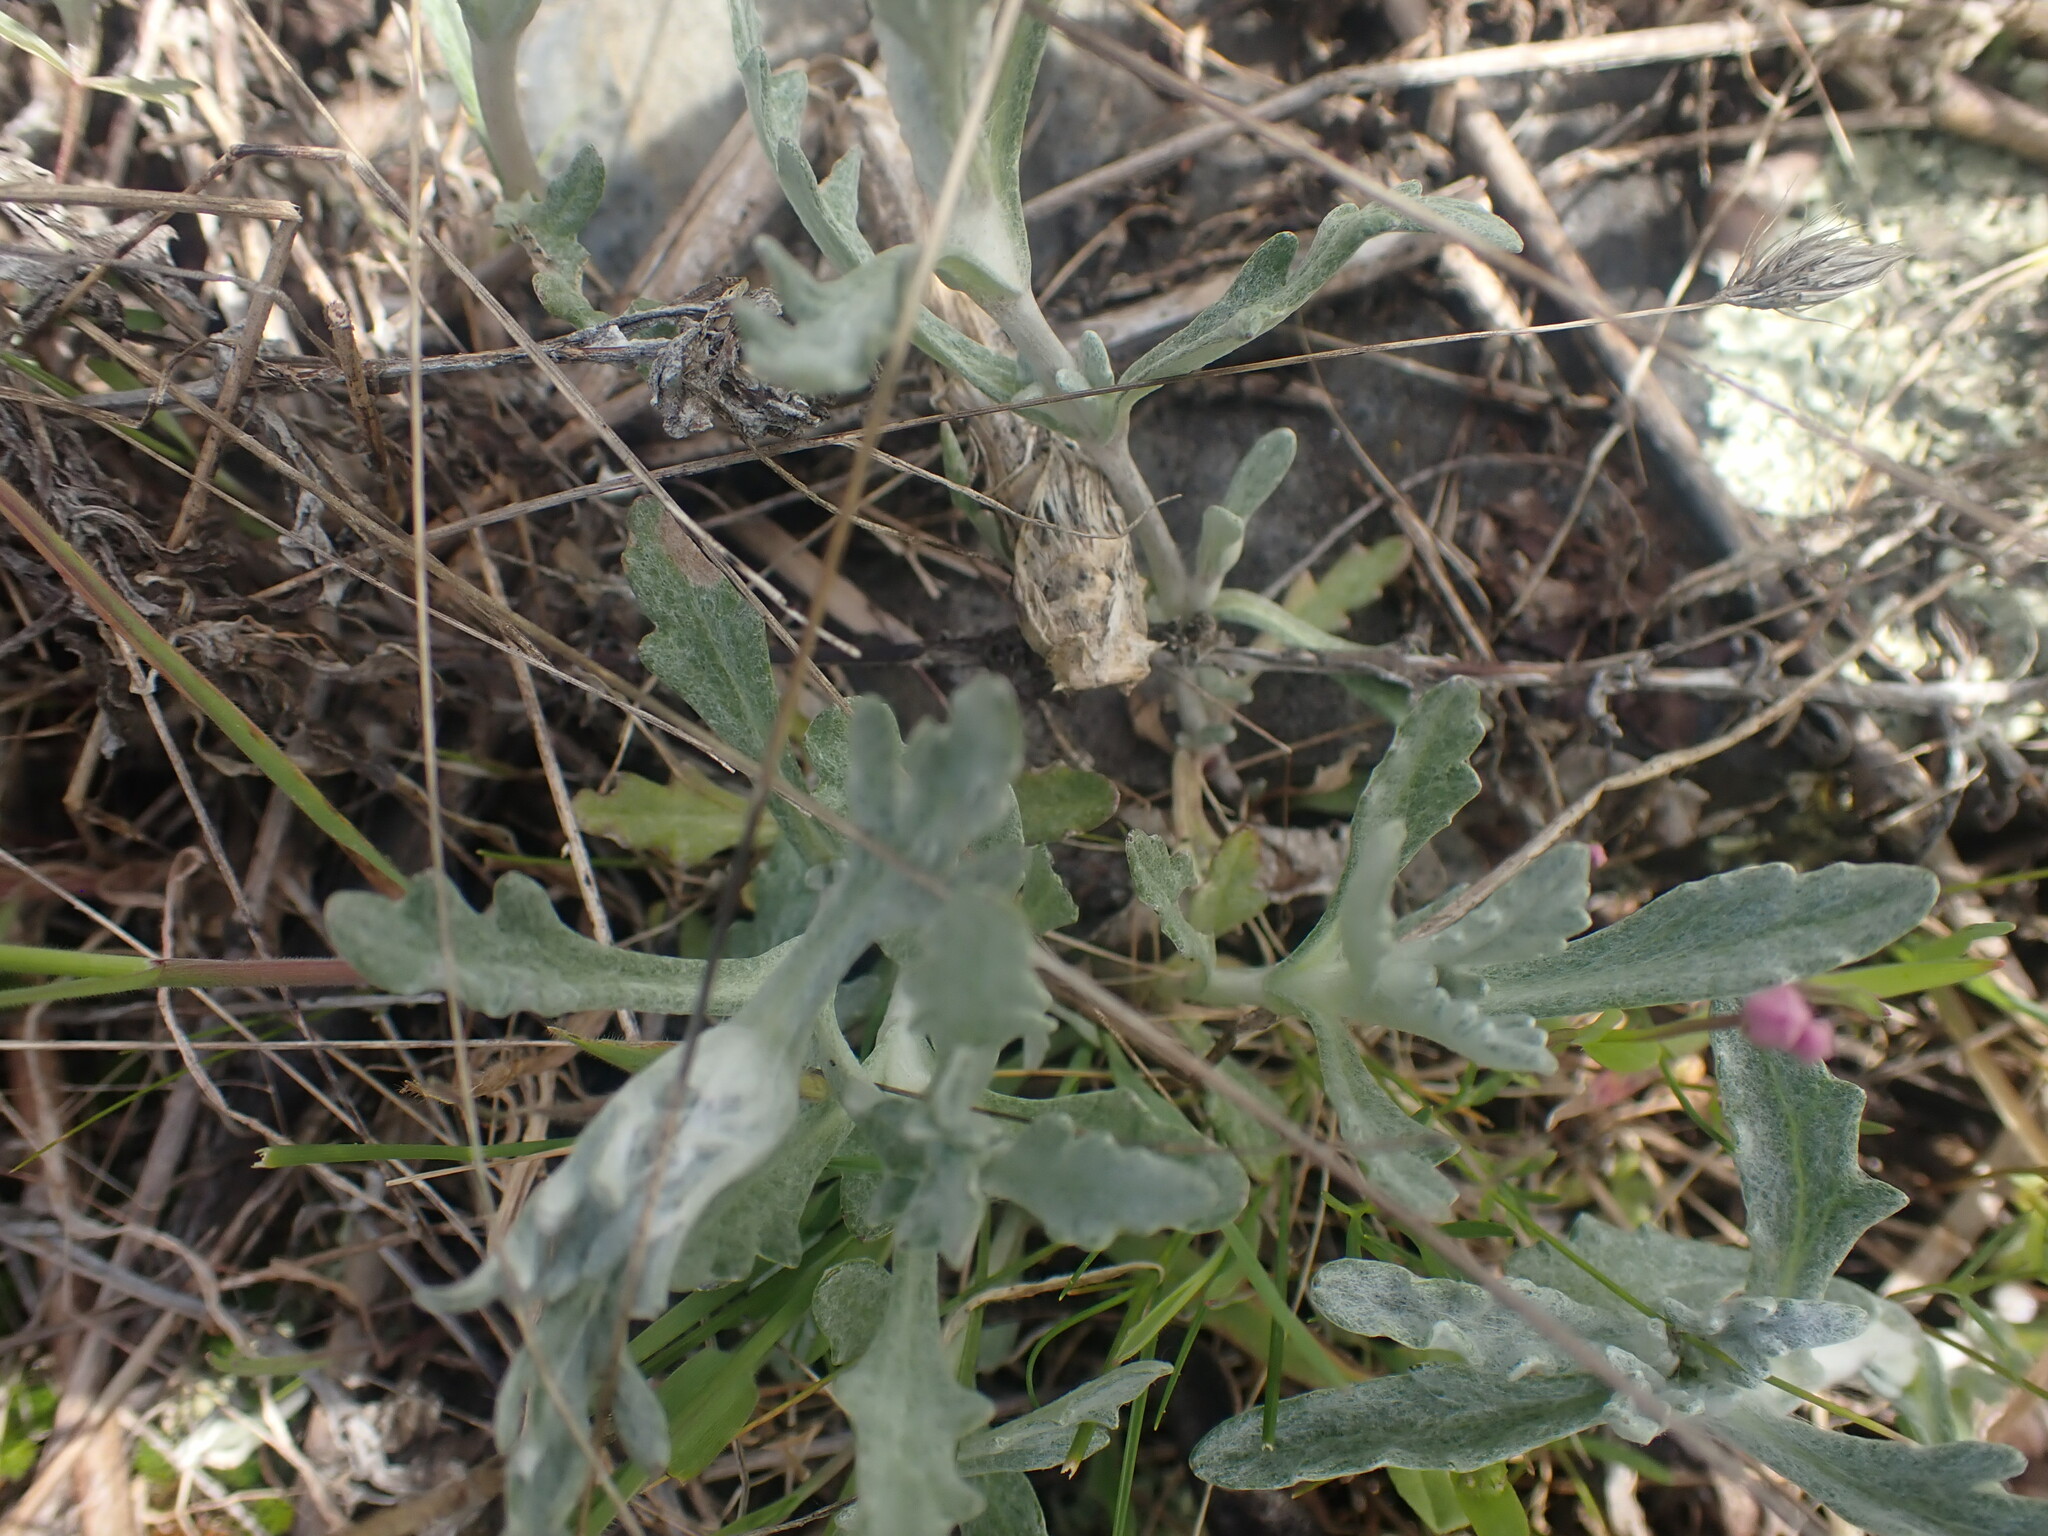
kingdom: Plantae
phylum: Tracheophyta
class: Magnoliopsida
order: Asterales
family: Asteraceae
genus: Eriophyllum
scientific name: Eriophyllum lanatum
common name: Common woolly-sunflower
